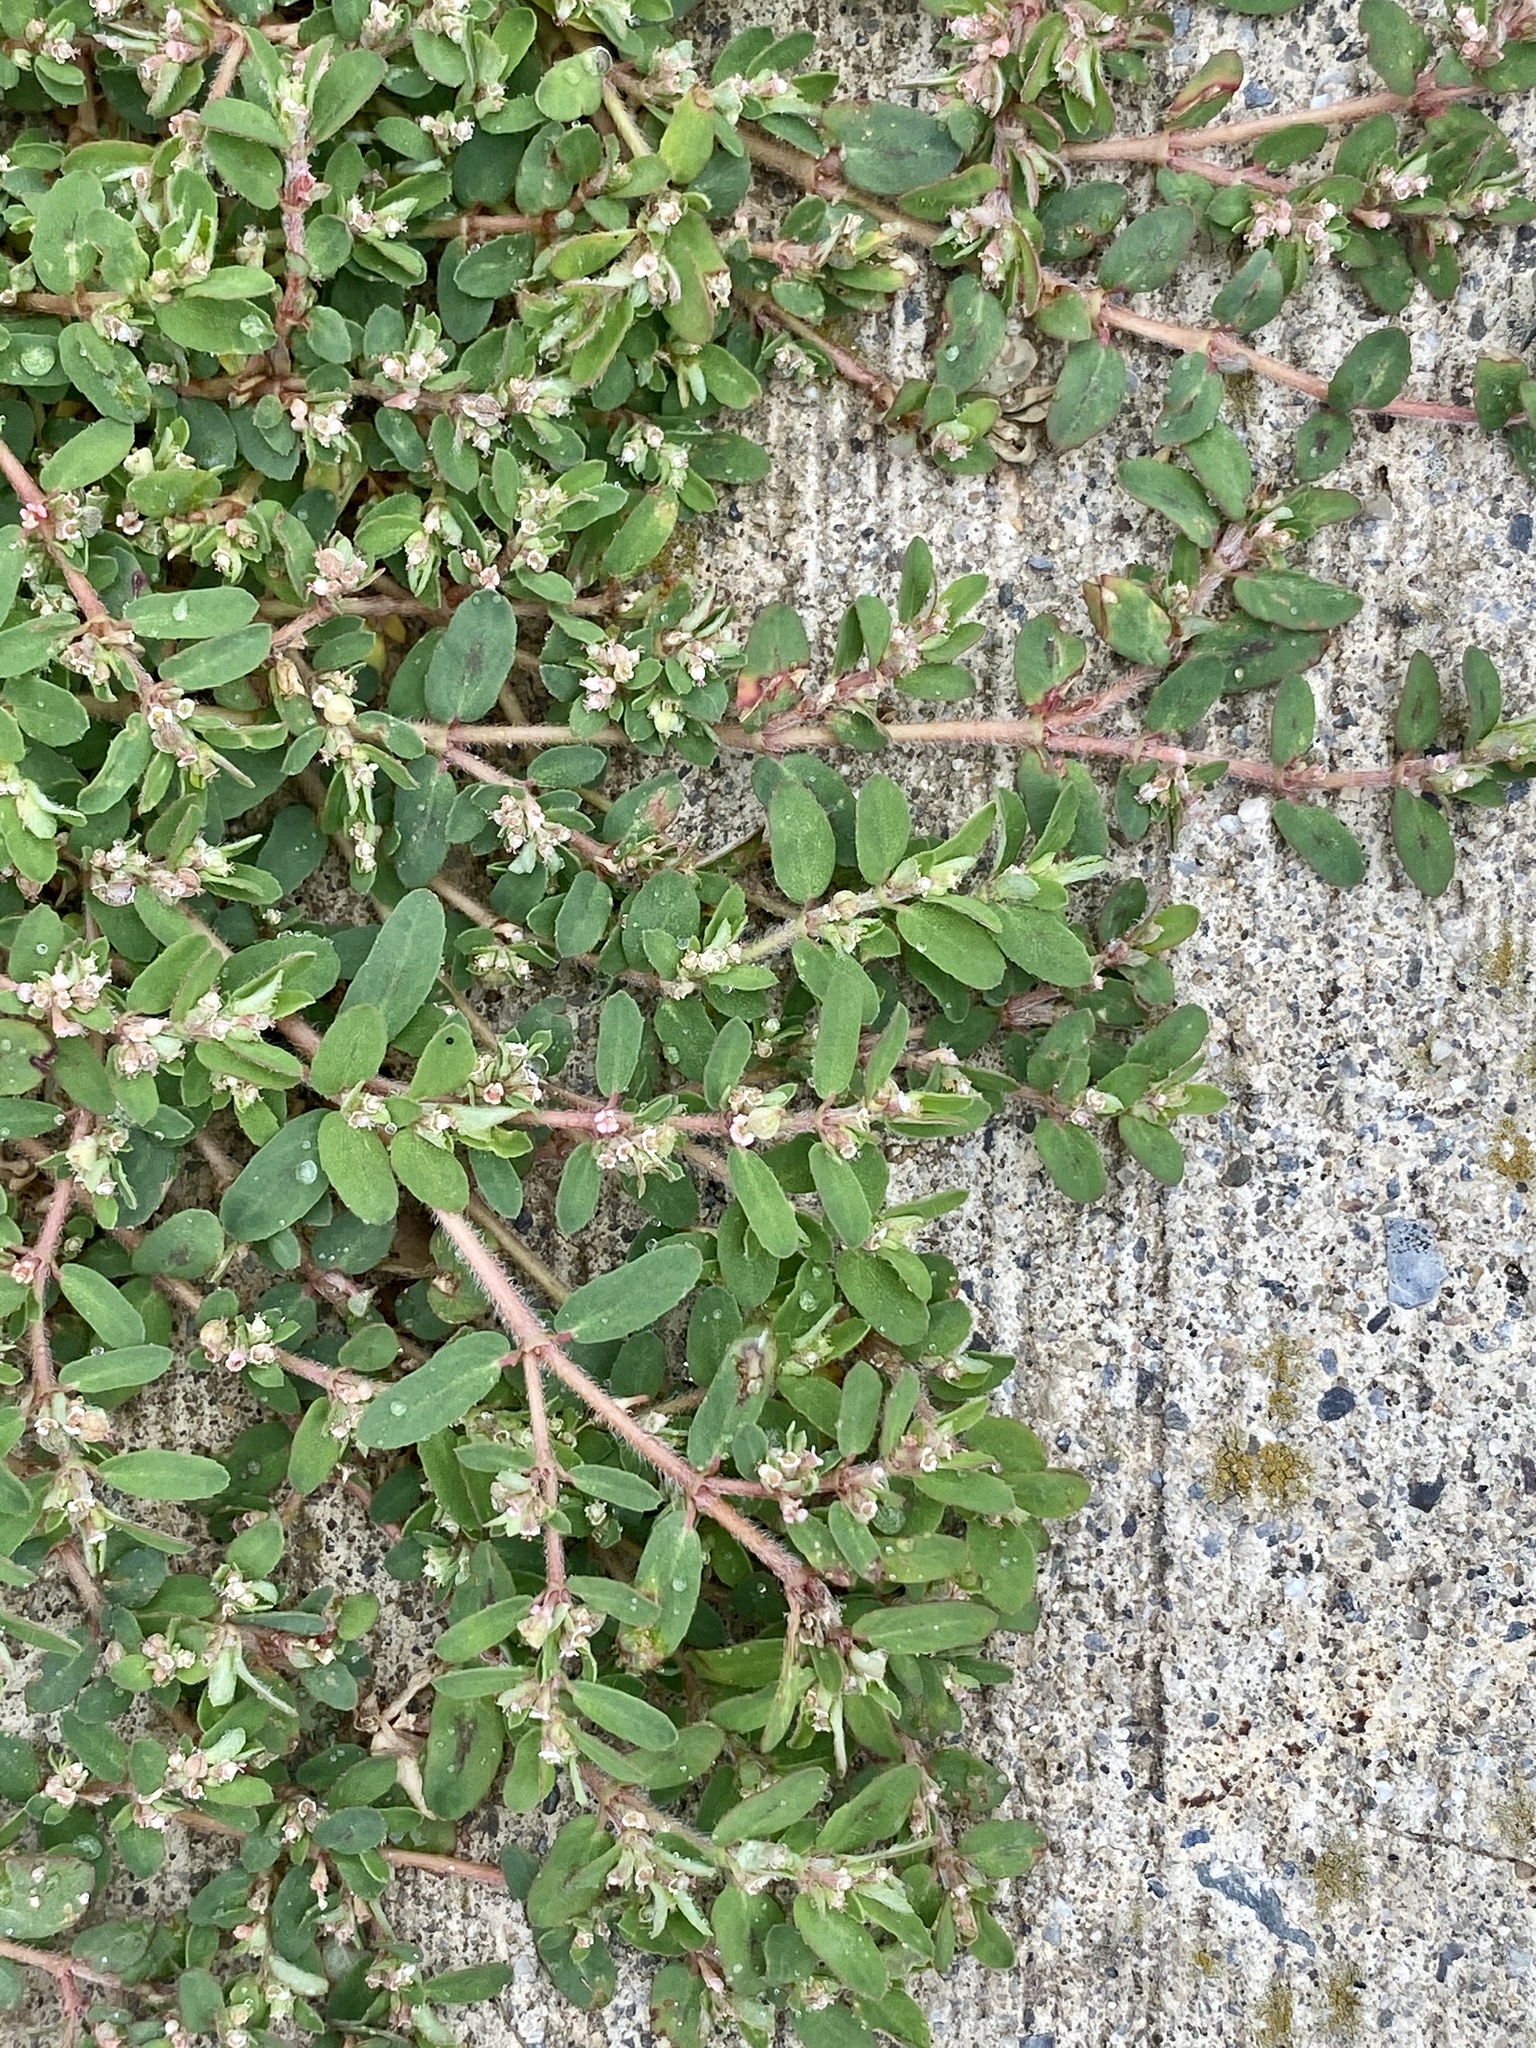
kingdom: Plantae
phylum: Tracheophyta
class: Magnoliopsida
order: Malpighiales
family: Euphorbiaceae
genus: Euphorbia
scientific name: Euphorbia maculata
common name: Spotted spurge
